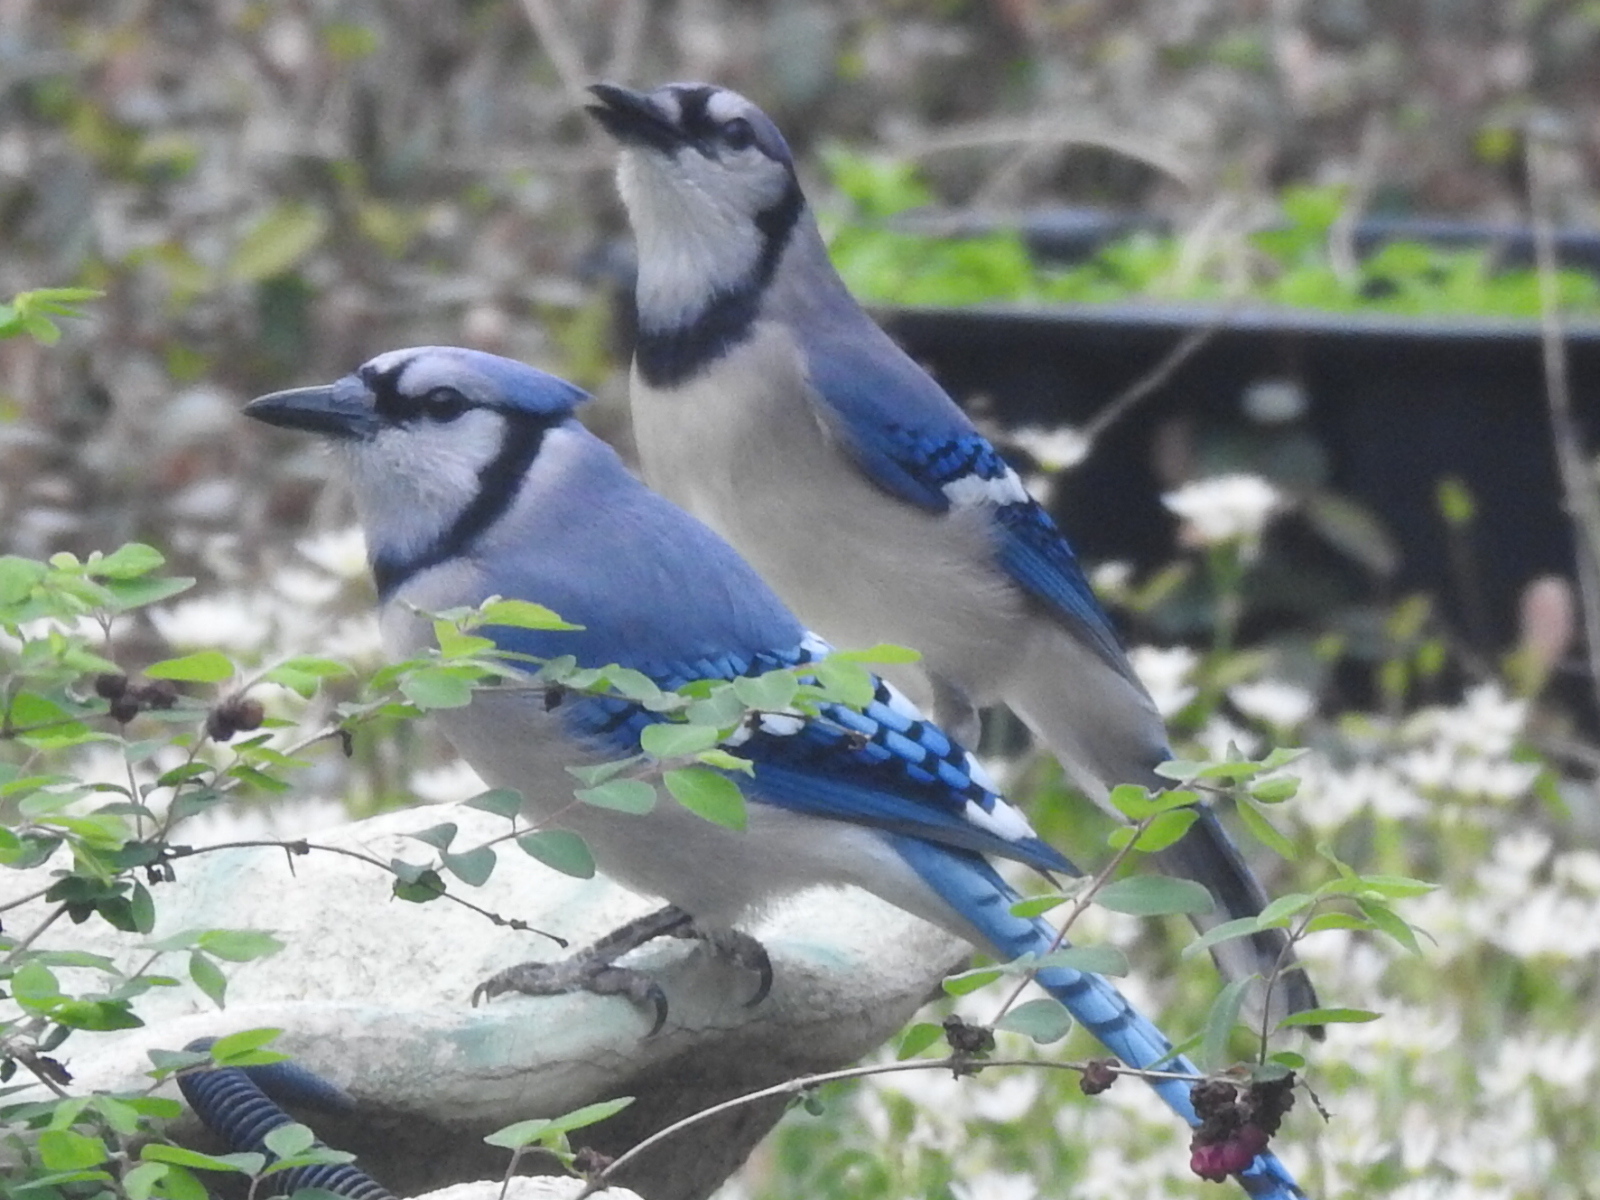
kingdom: Animalia
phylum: Chordata
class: Aves
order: Passeriformes
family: Corvidae
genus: Cyanocitta
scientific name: Cyanocitta cristata
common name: Blue jay
